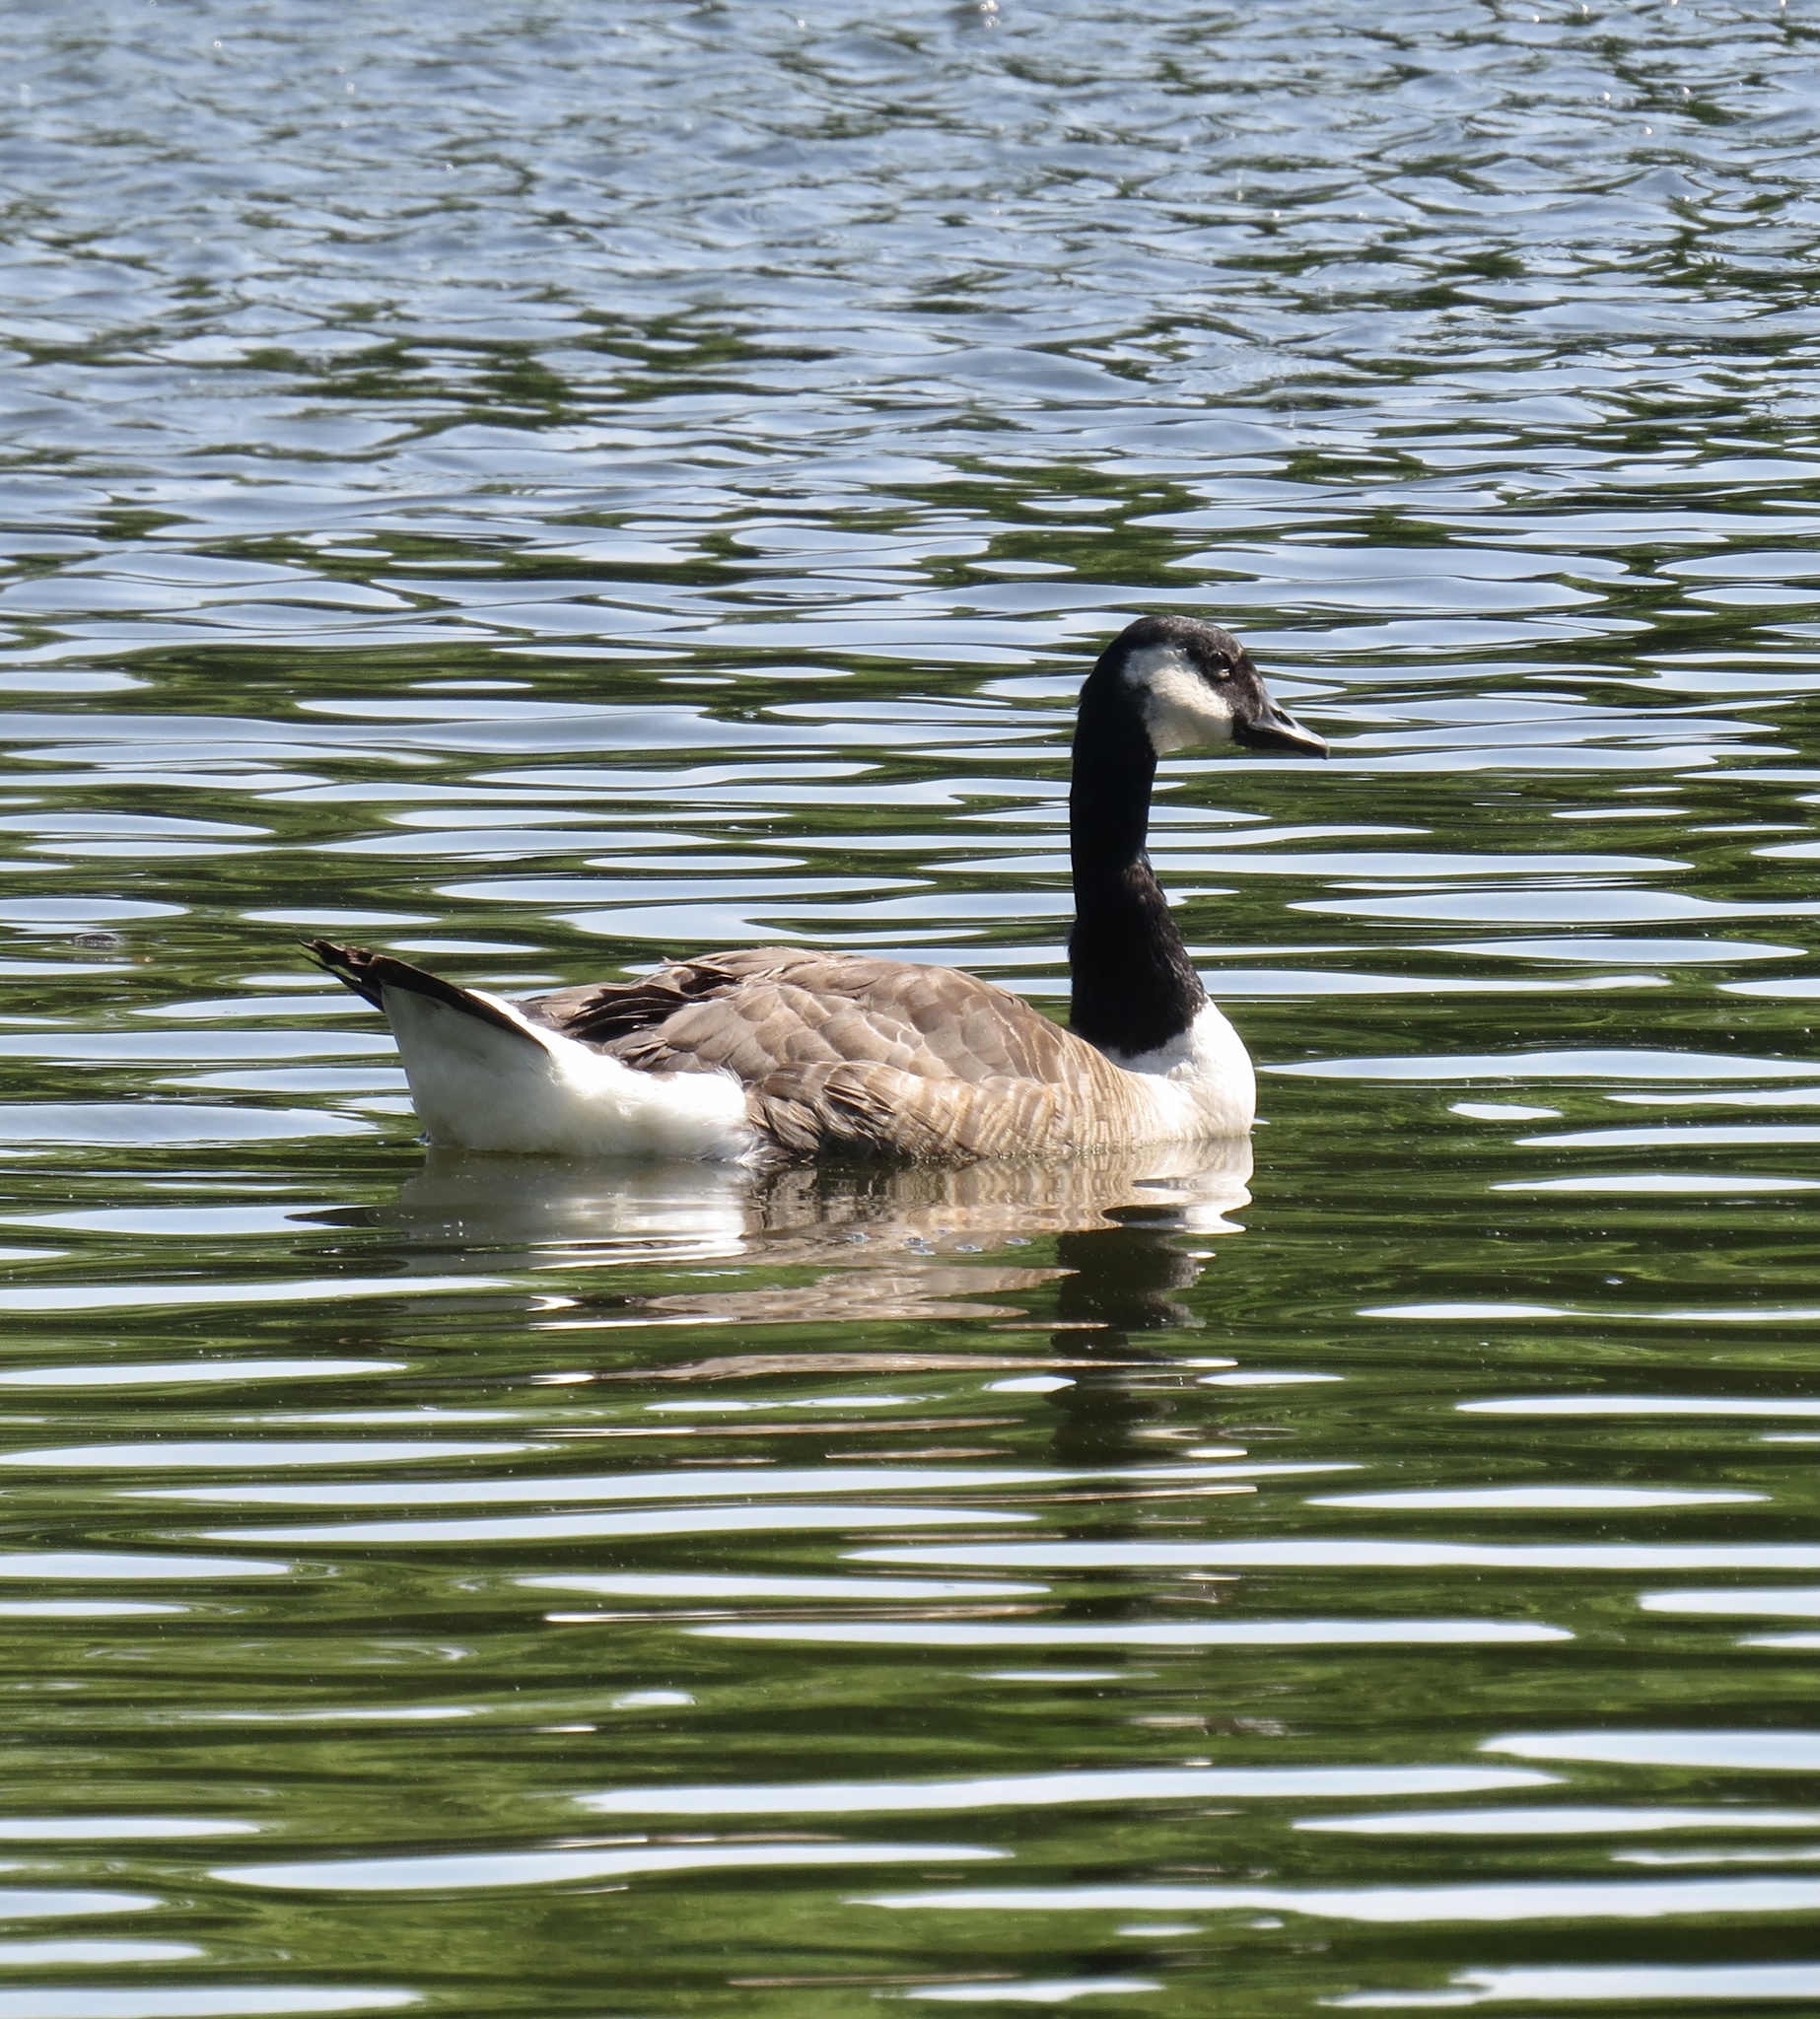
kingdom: Animalia
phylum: Chordata
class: Aves
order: Anseriformes
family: Anatidae
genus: Branta
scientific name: Branta canadensis
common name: Canada goose
